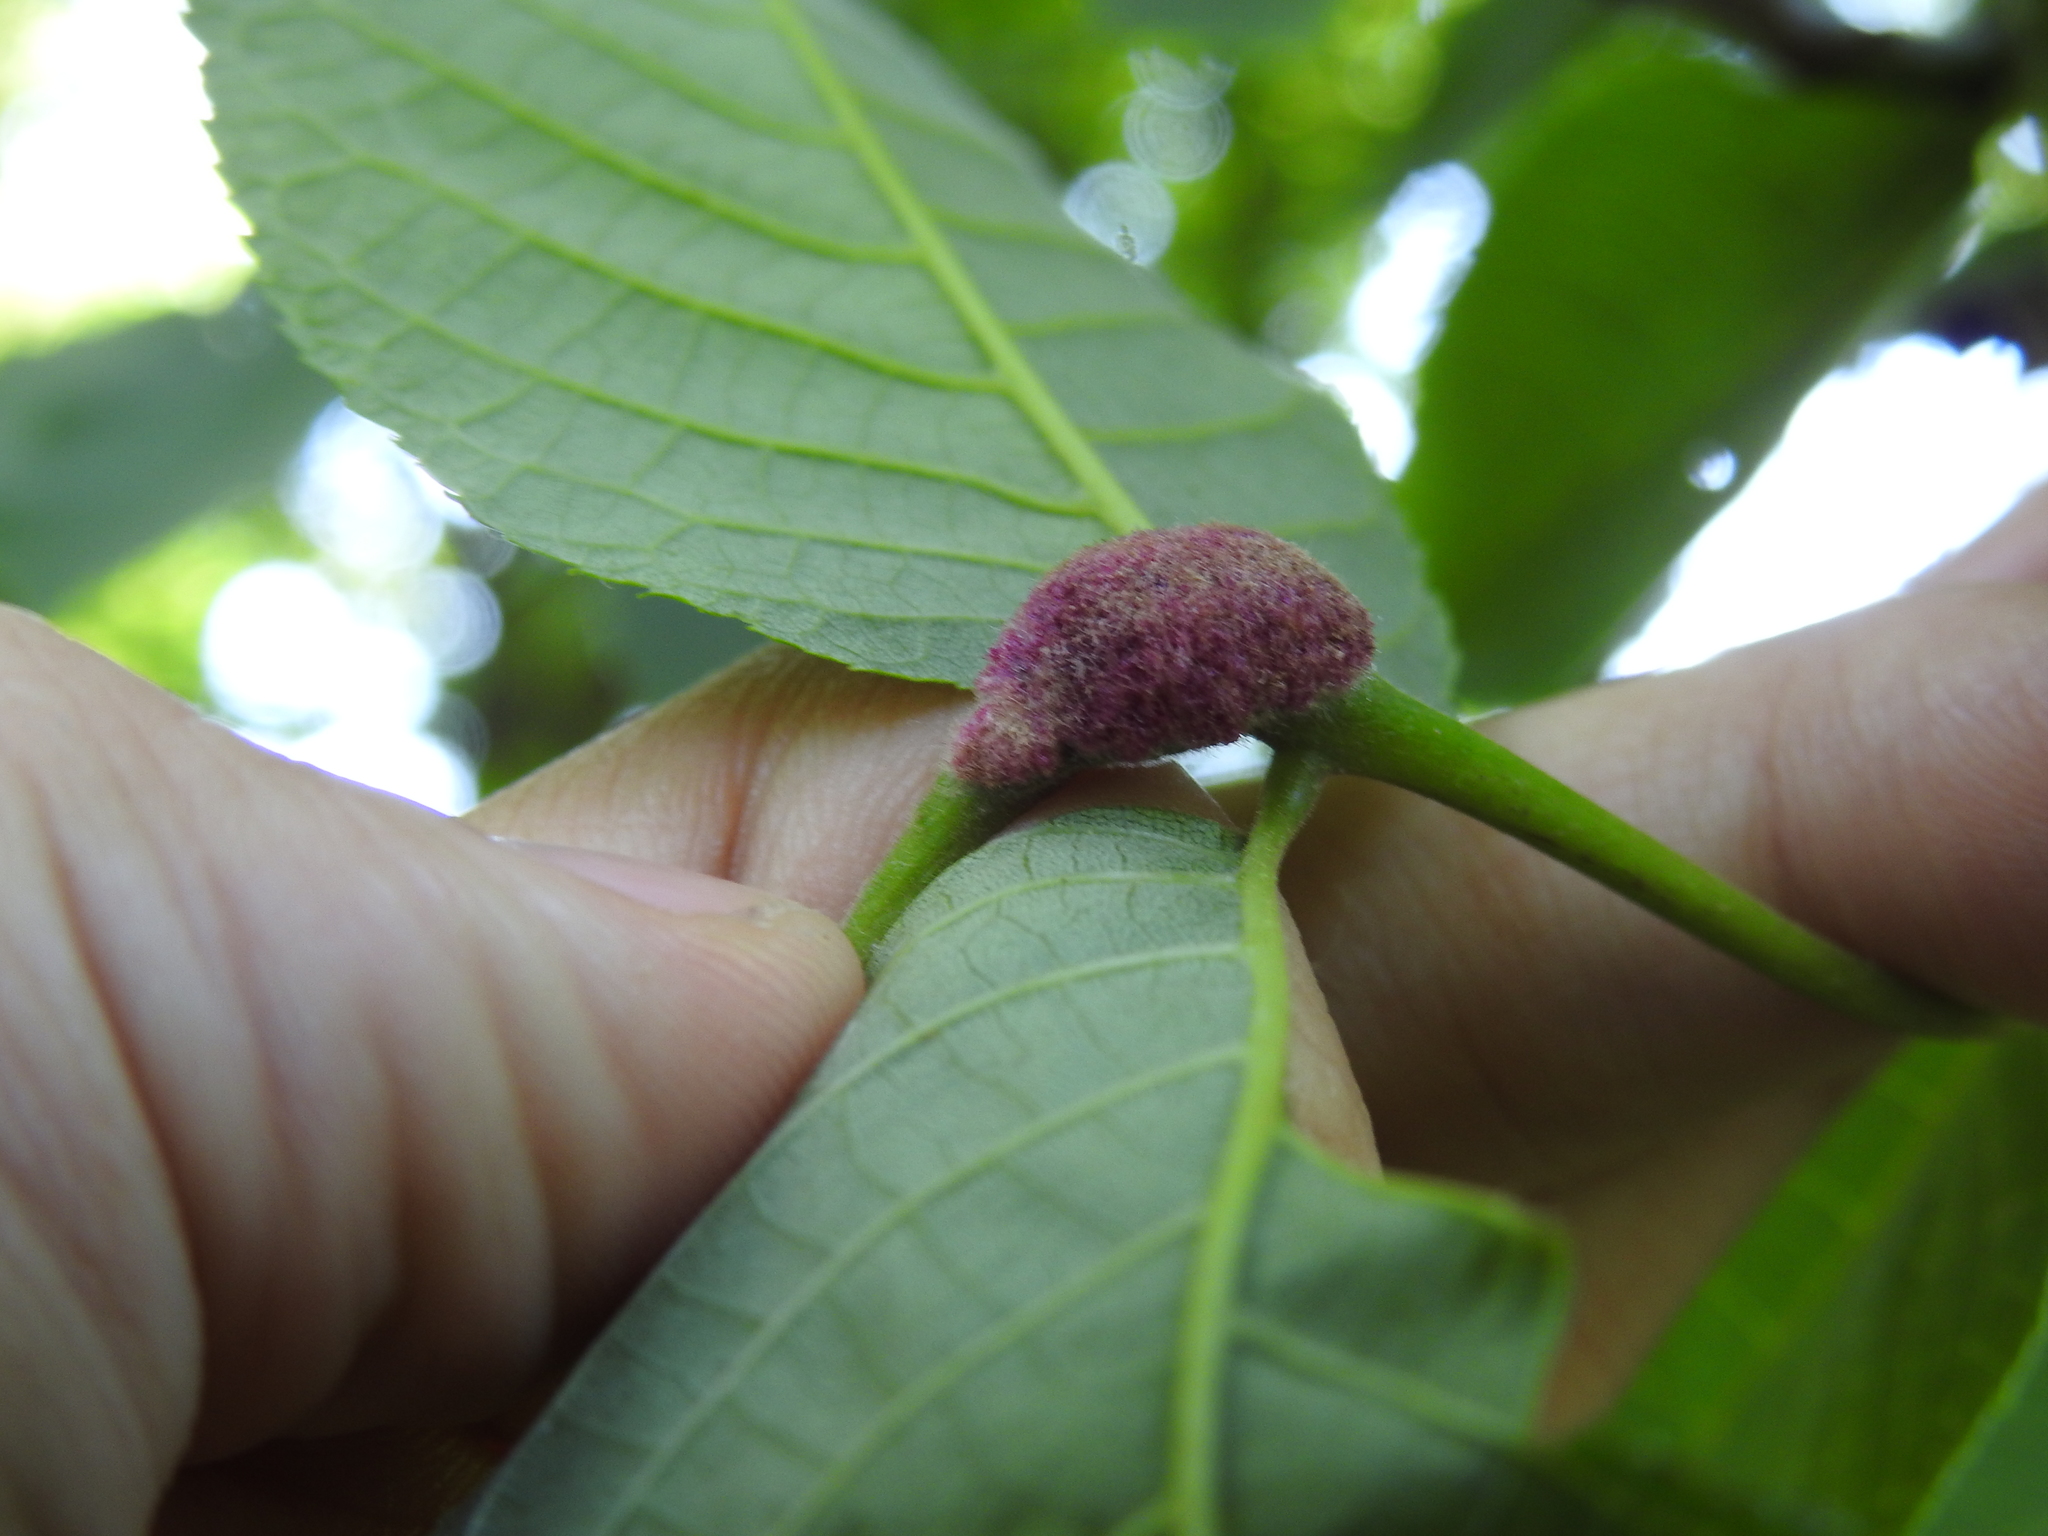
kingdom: Animalia
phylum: Arthropoda
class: Arachnida
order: Trombidiformes
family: Eriophyidae
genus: Aceria
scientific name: Aceria
